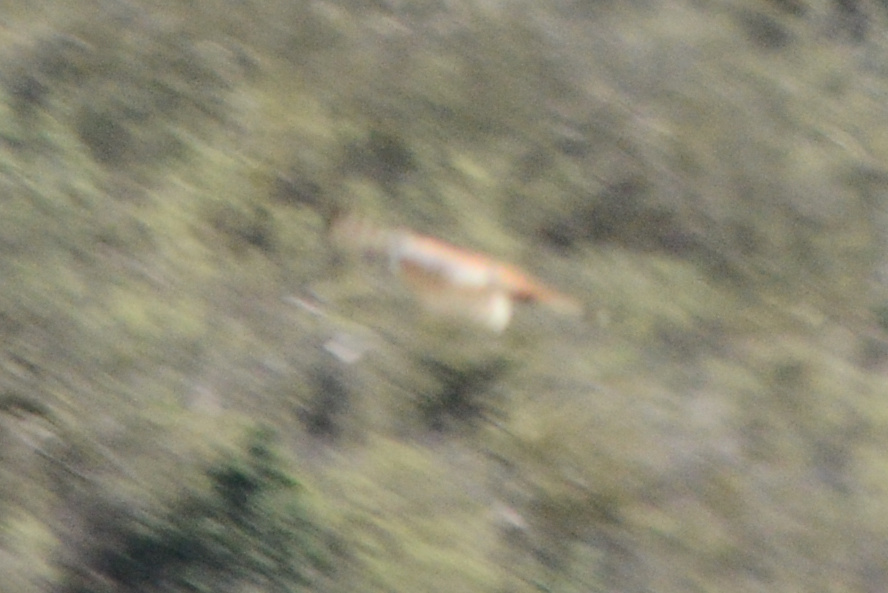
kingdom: Animalia
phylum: Chordata
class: Aves
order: Falconiformes
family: Falconidae
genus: Falco
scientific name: Falco sparverius
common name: American kestrel
